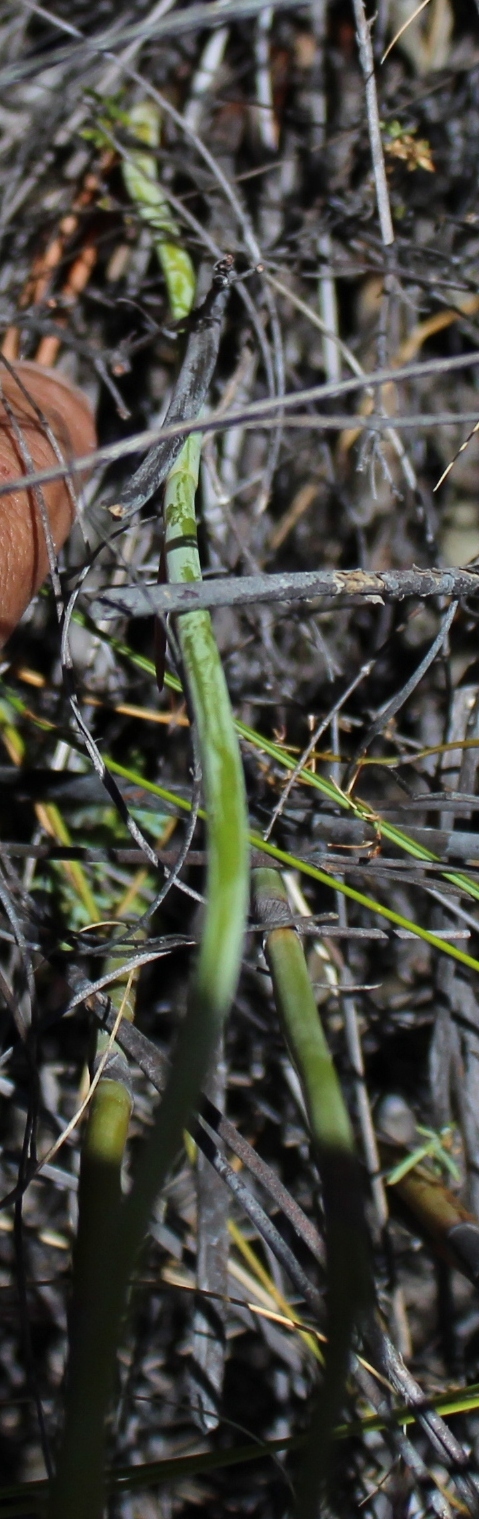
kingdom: Plantae
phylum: Tracheophyta
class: Liliopsida
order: Asparagales
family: Iridaceae
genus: Tritoniopsis
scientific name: Tritoniopsis antholyza
